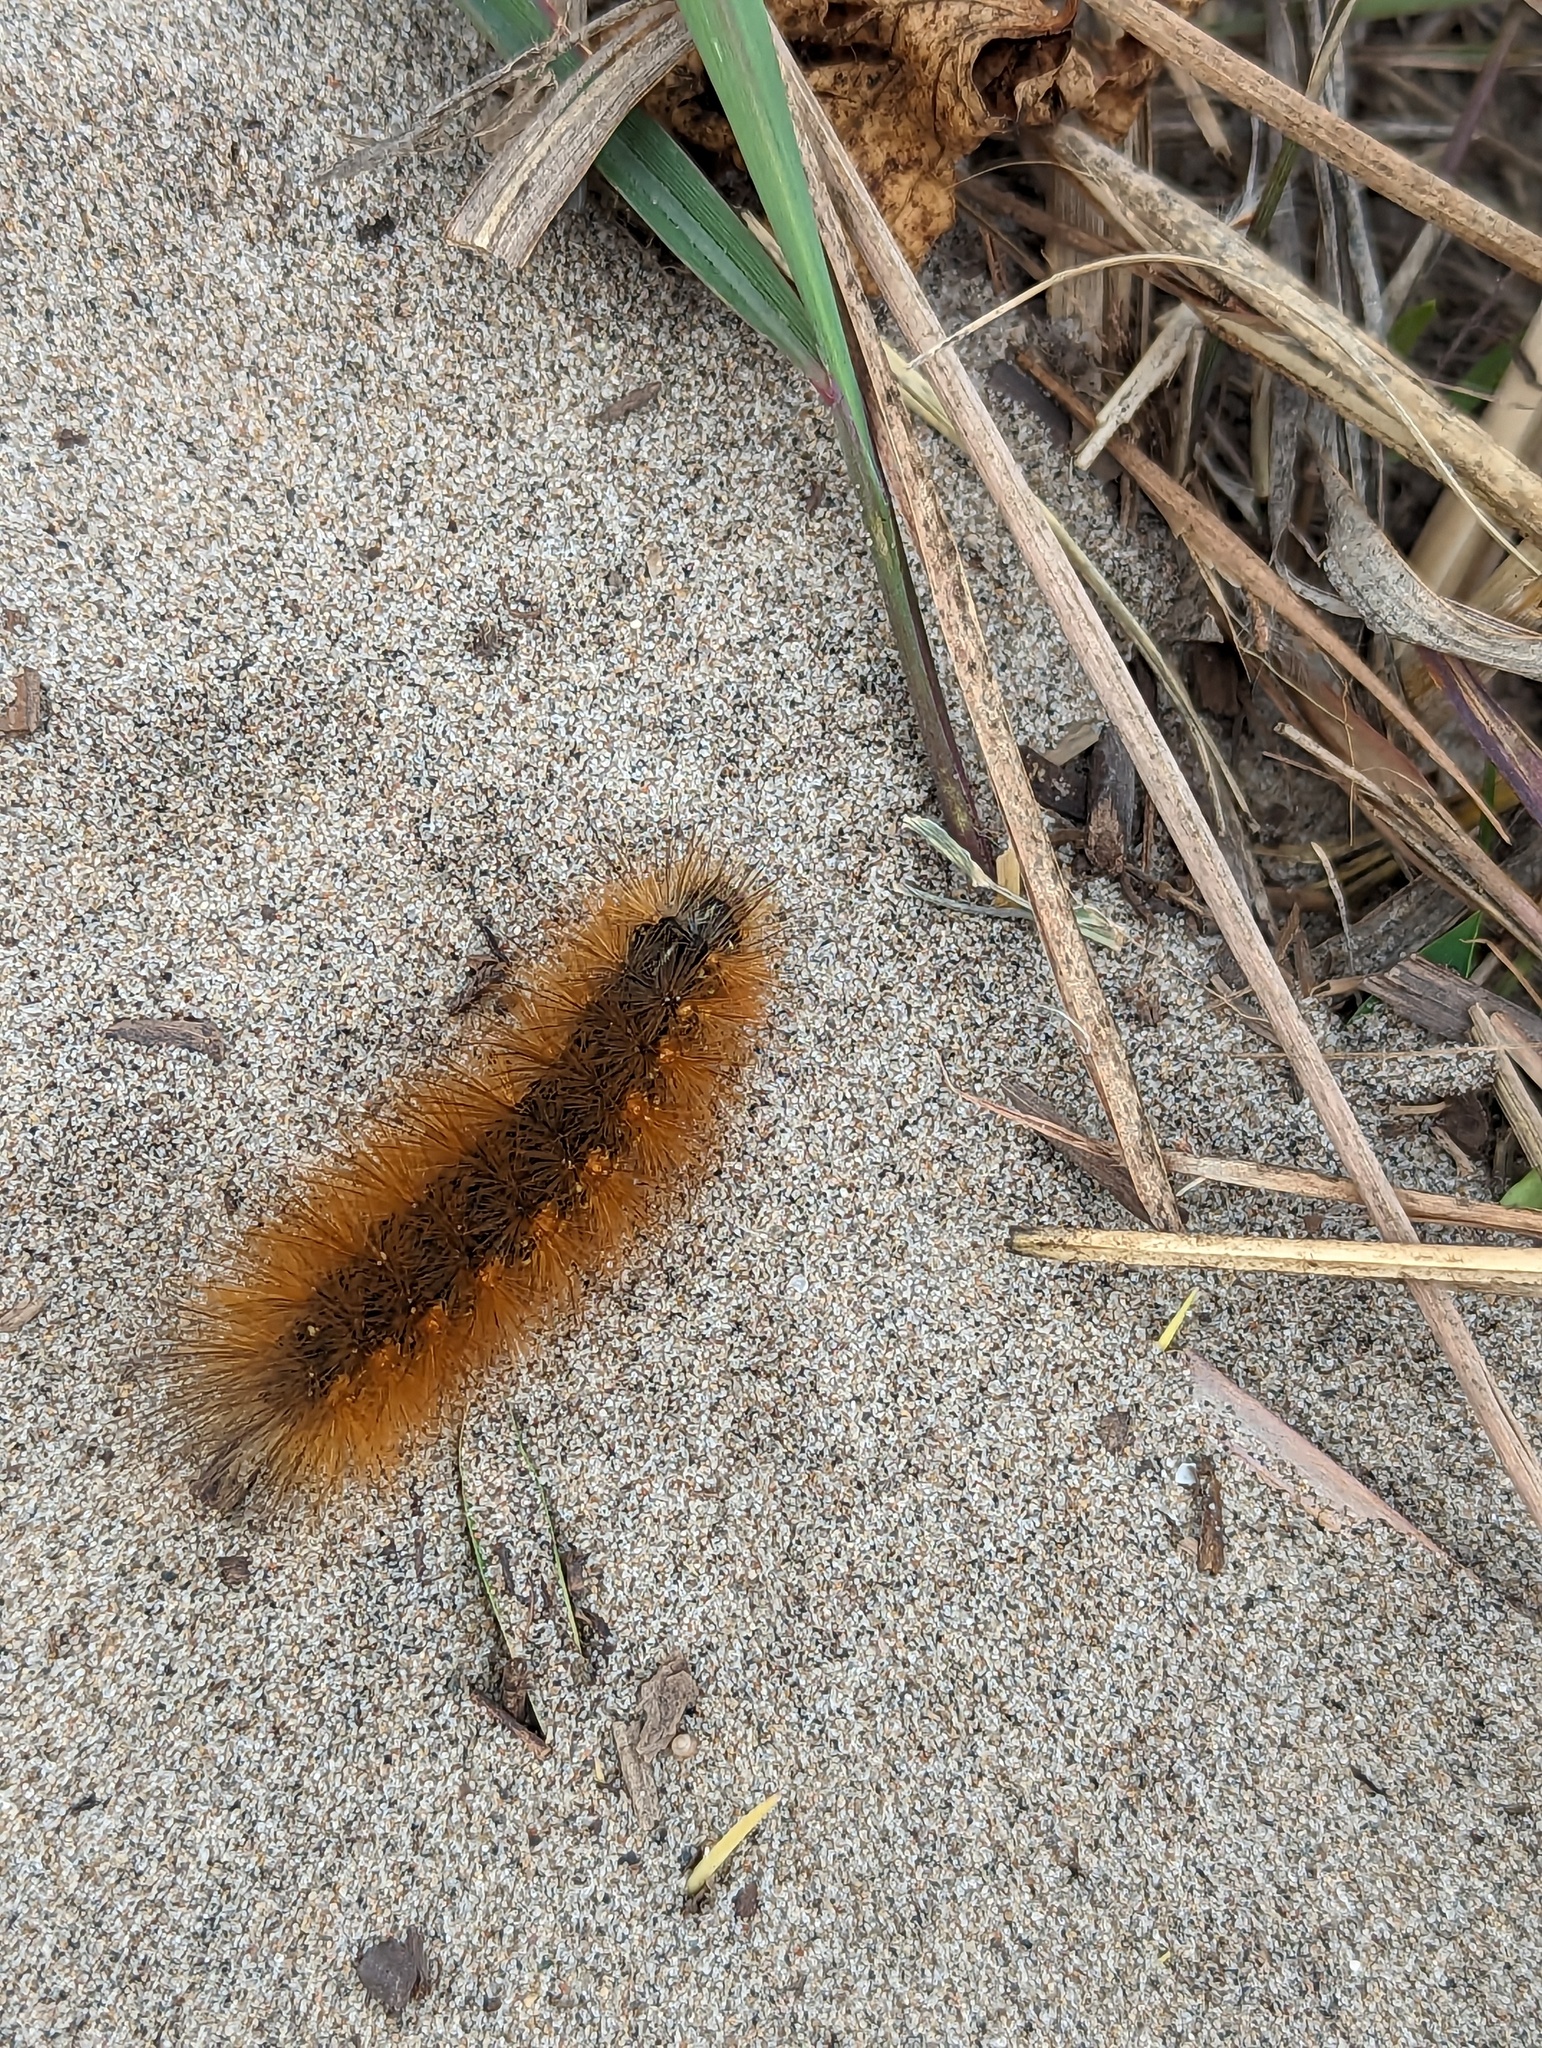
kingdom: Animalia
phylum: Arthropoda
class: Insecta
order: Lepidoptera
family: Erebidae
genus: Estigmene
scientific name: Estigmene acrea
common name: Salt marsh moth
